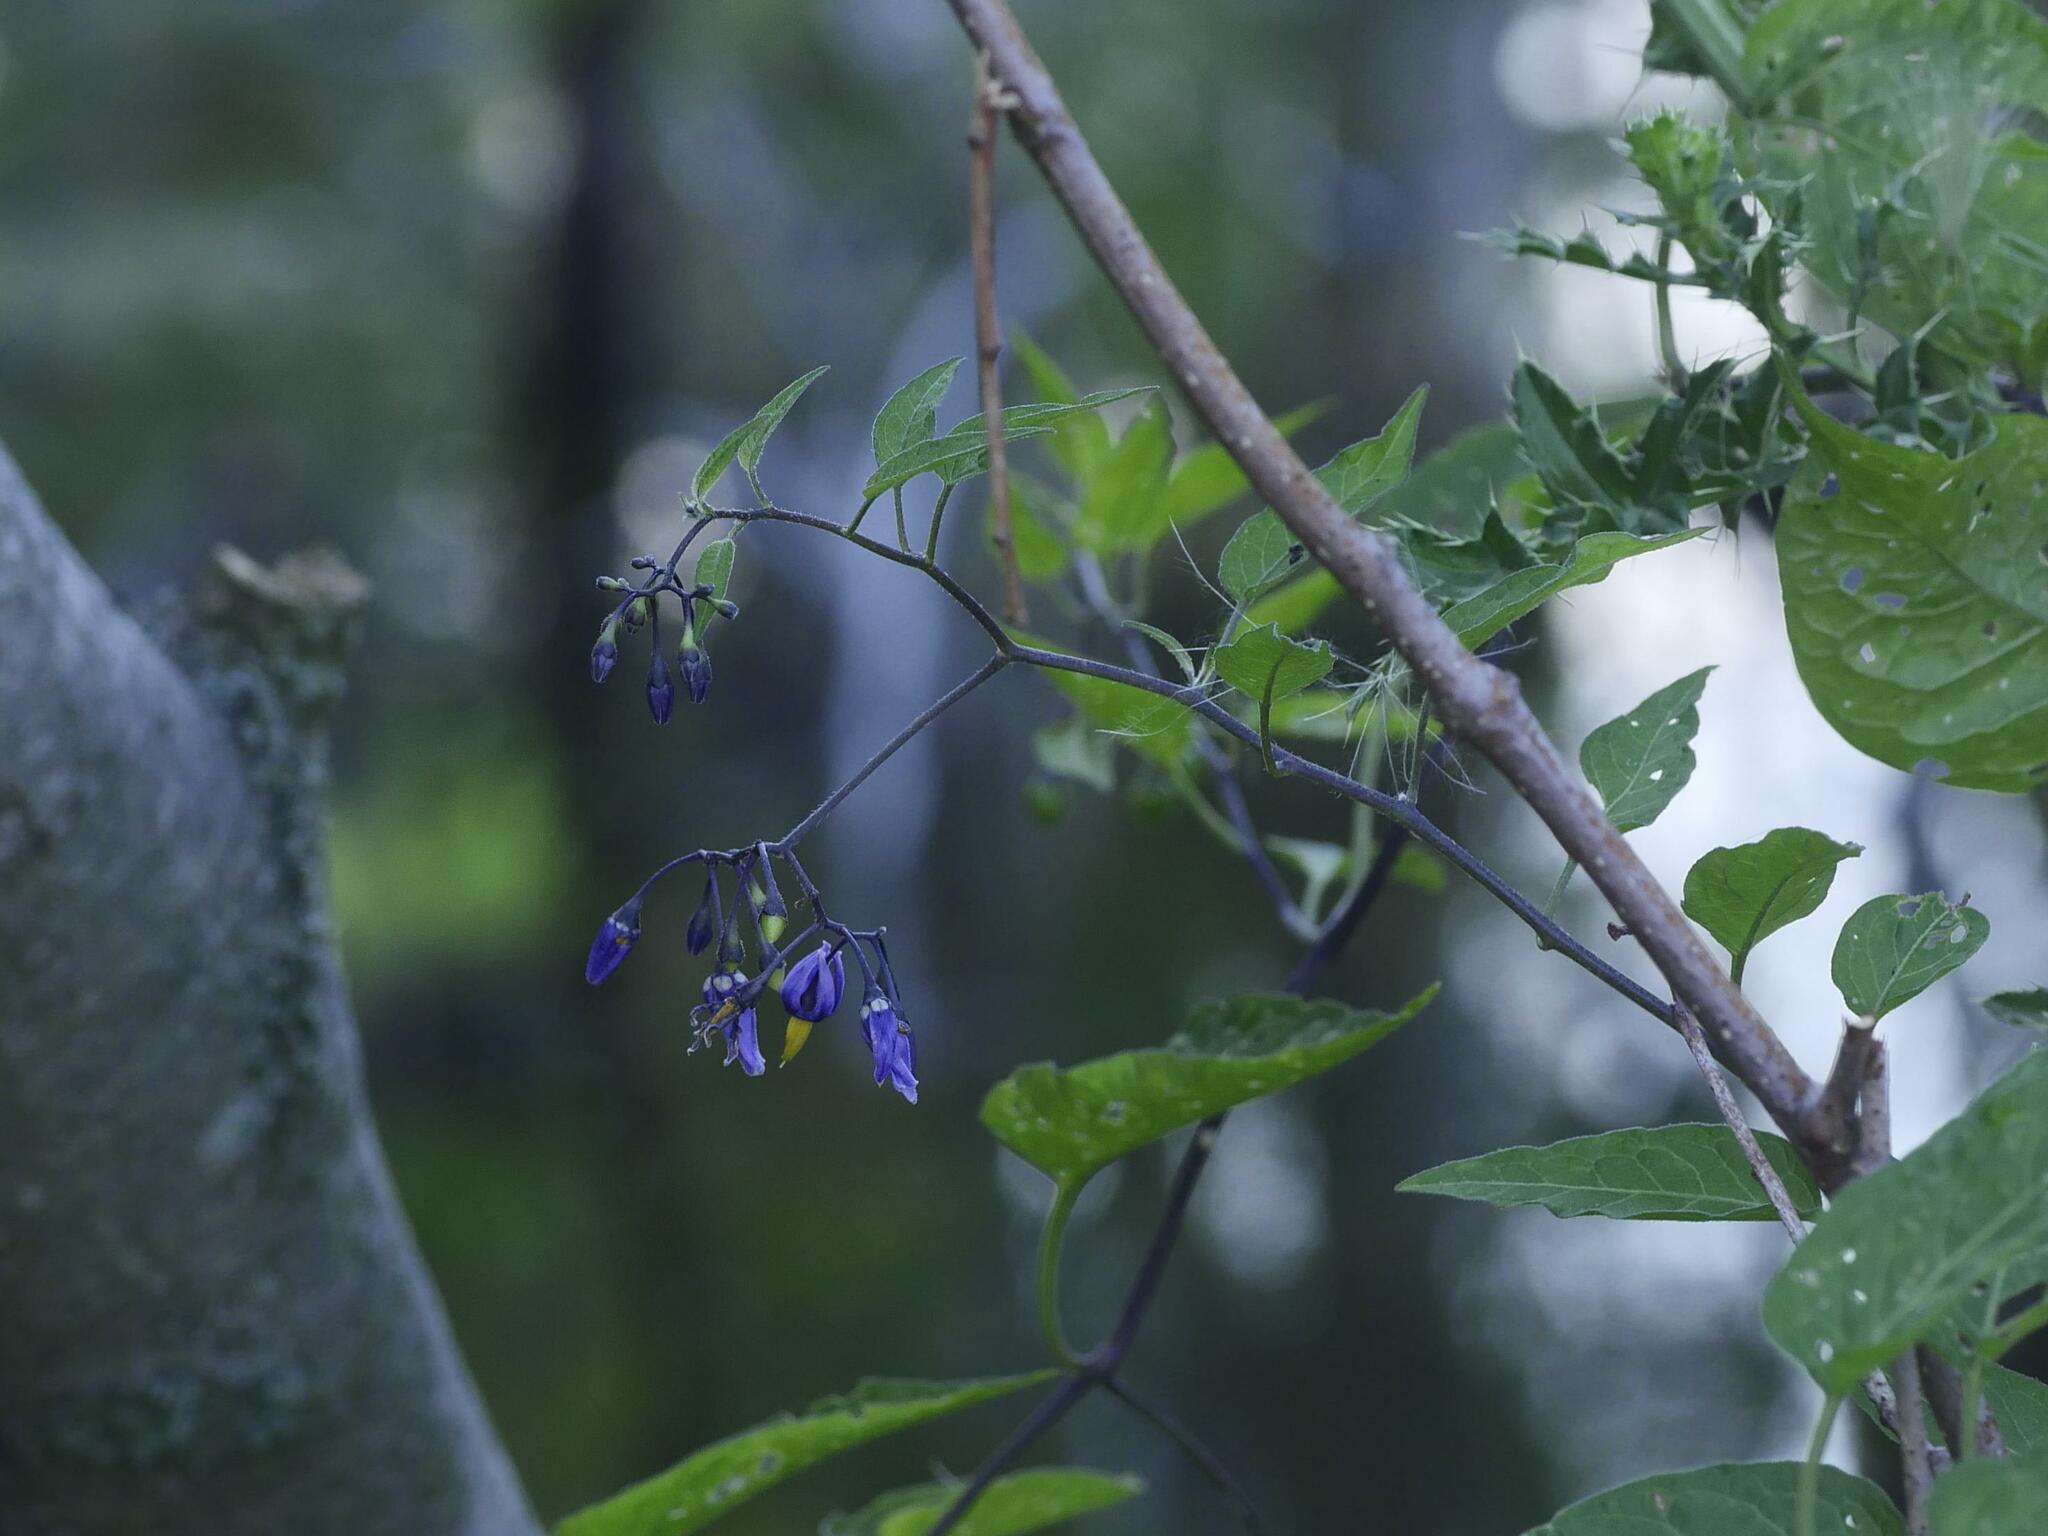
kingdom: Plantae
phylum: Tracheophyta
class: Magnoliopsida
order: Solanales
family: Solanaceae
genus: Solanum
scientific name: Solanum dulcamara
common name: Climbing nightshade
